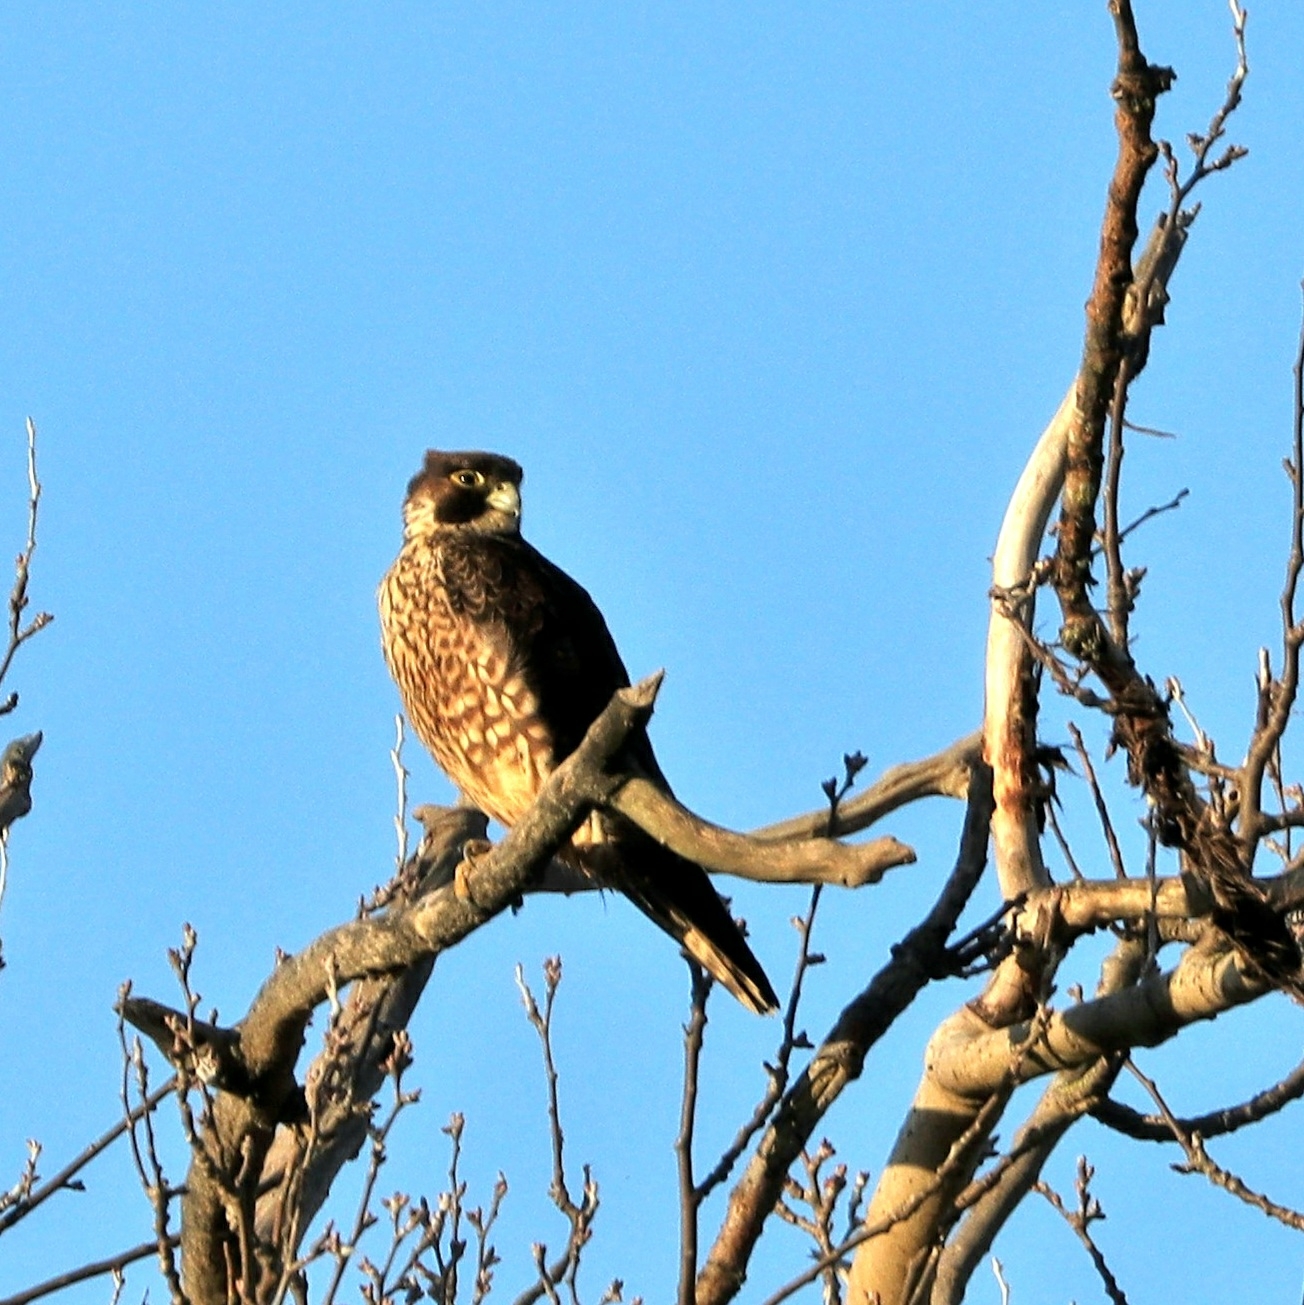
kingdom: Animalia
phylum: Chordata
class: Aves
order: Falconiformes
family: Falconidae
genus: Falco
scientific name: Falco peregrinus
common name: Peregrine falcon
